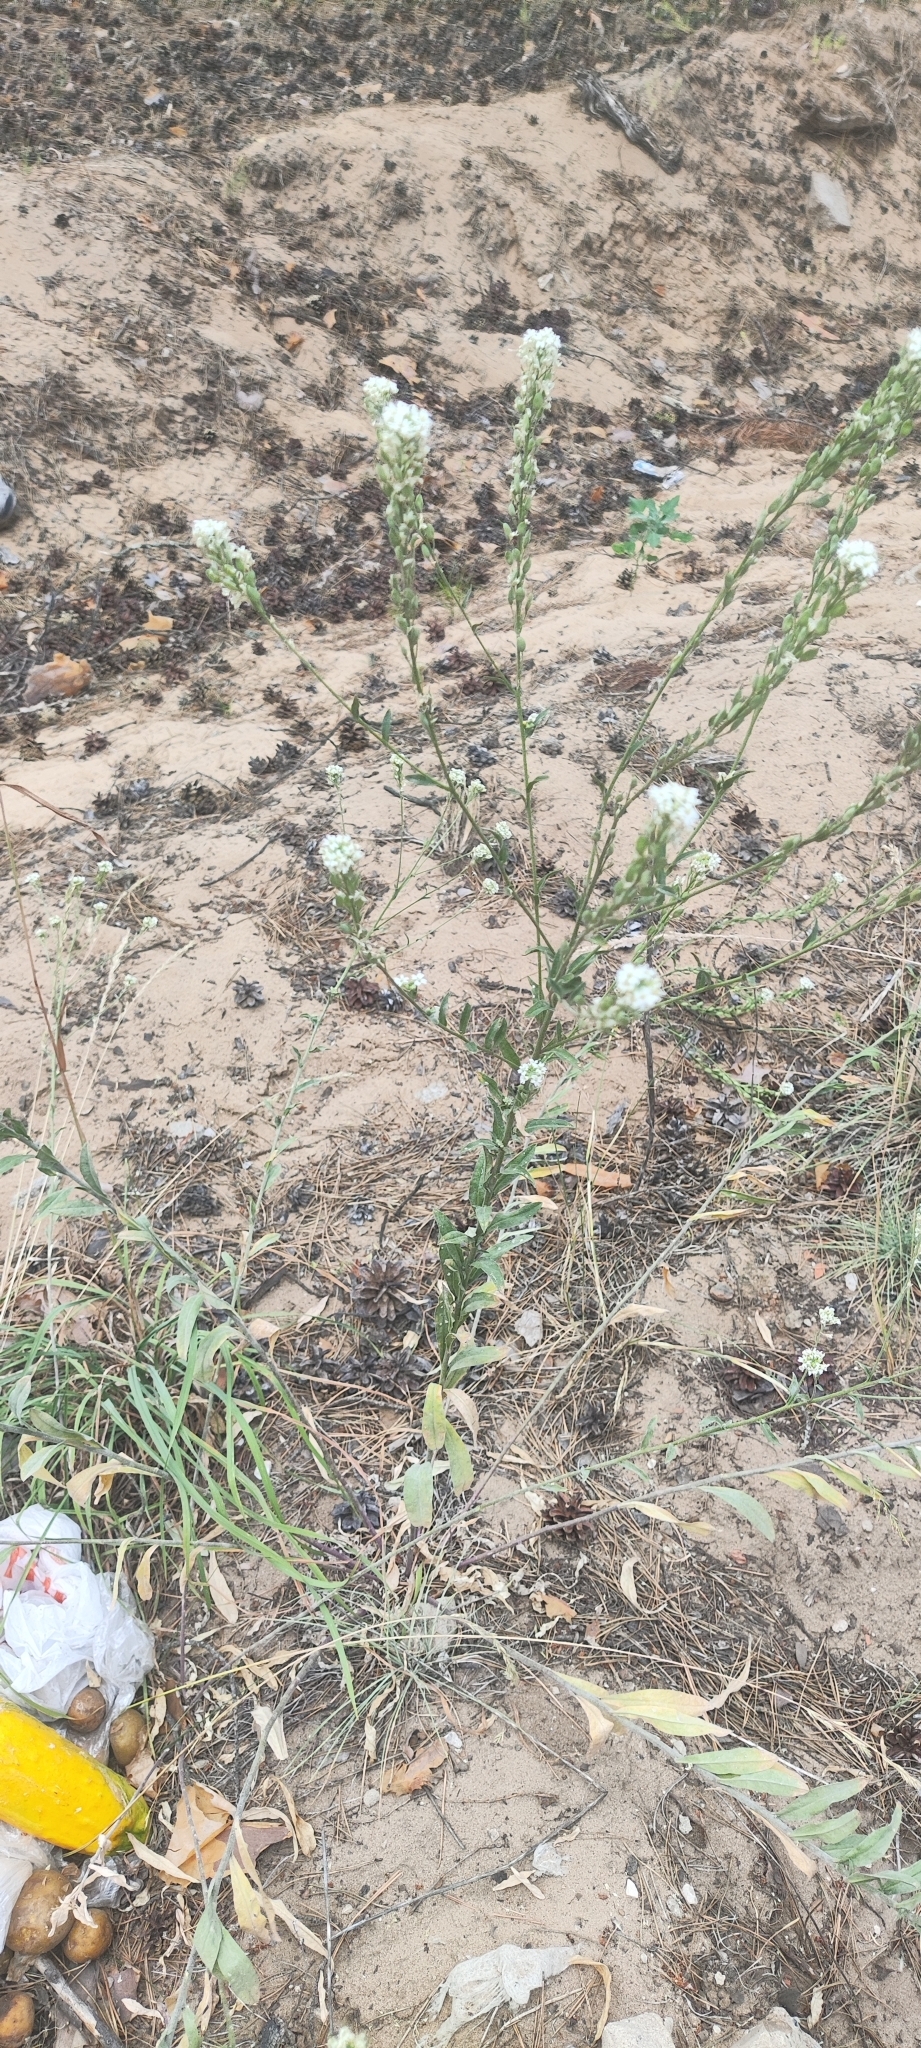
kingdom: Plantae
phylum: Tracheophyta
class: Magnoliopsida
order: Brassicales
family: Brassicaceae
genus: Berteroa
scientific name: Berteroa incana
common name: Hoary alison
